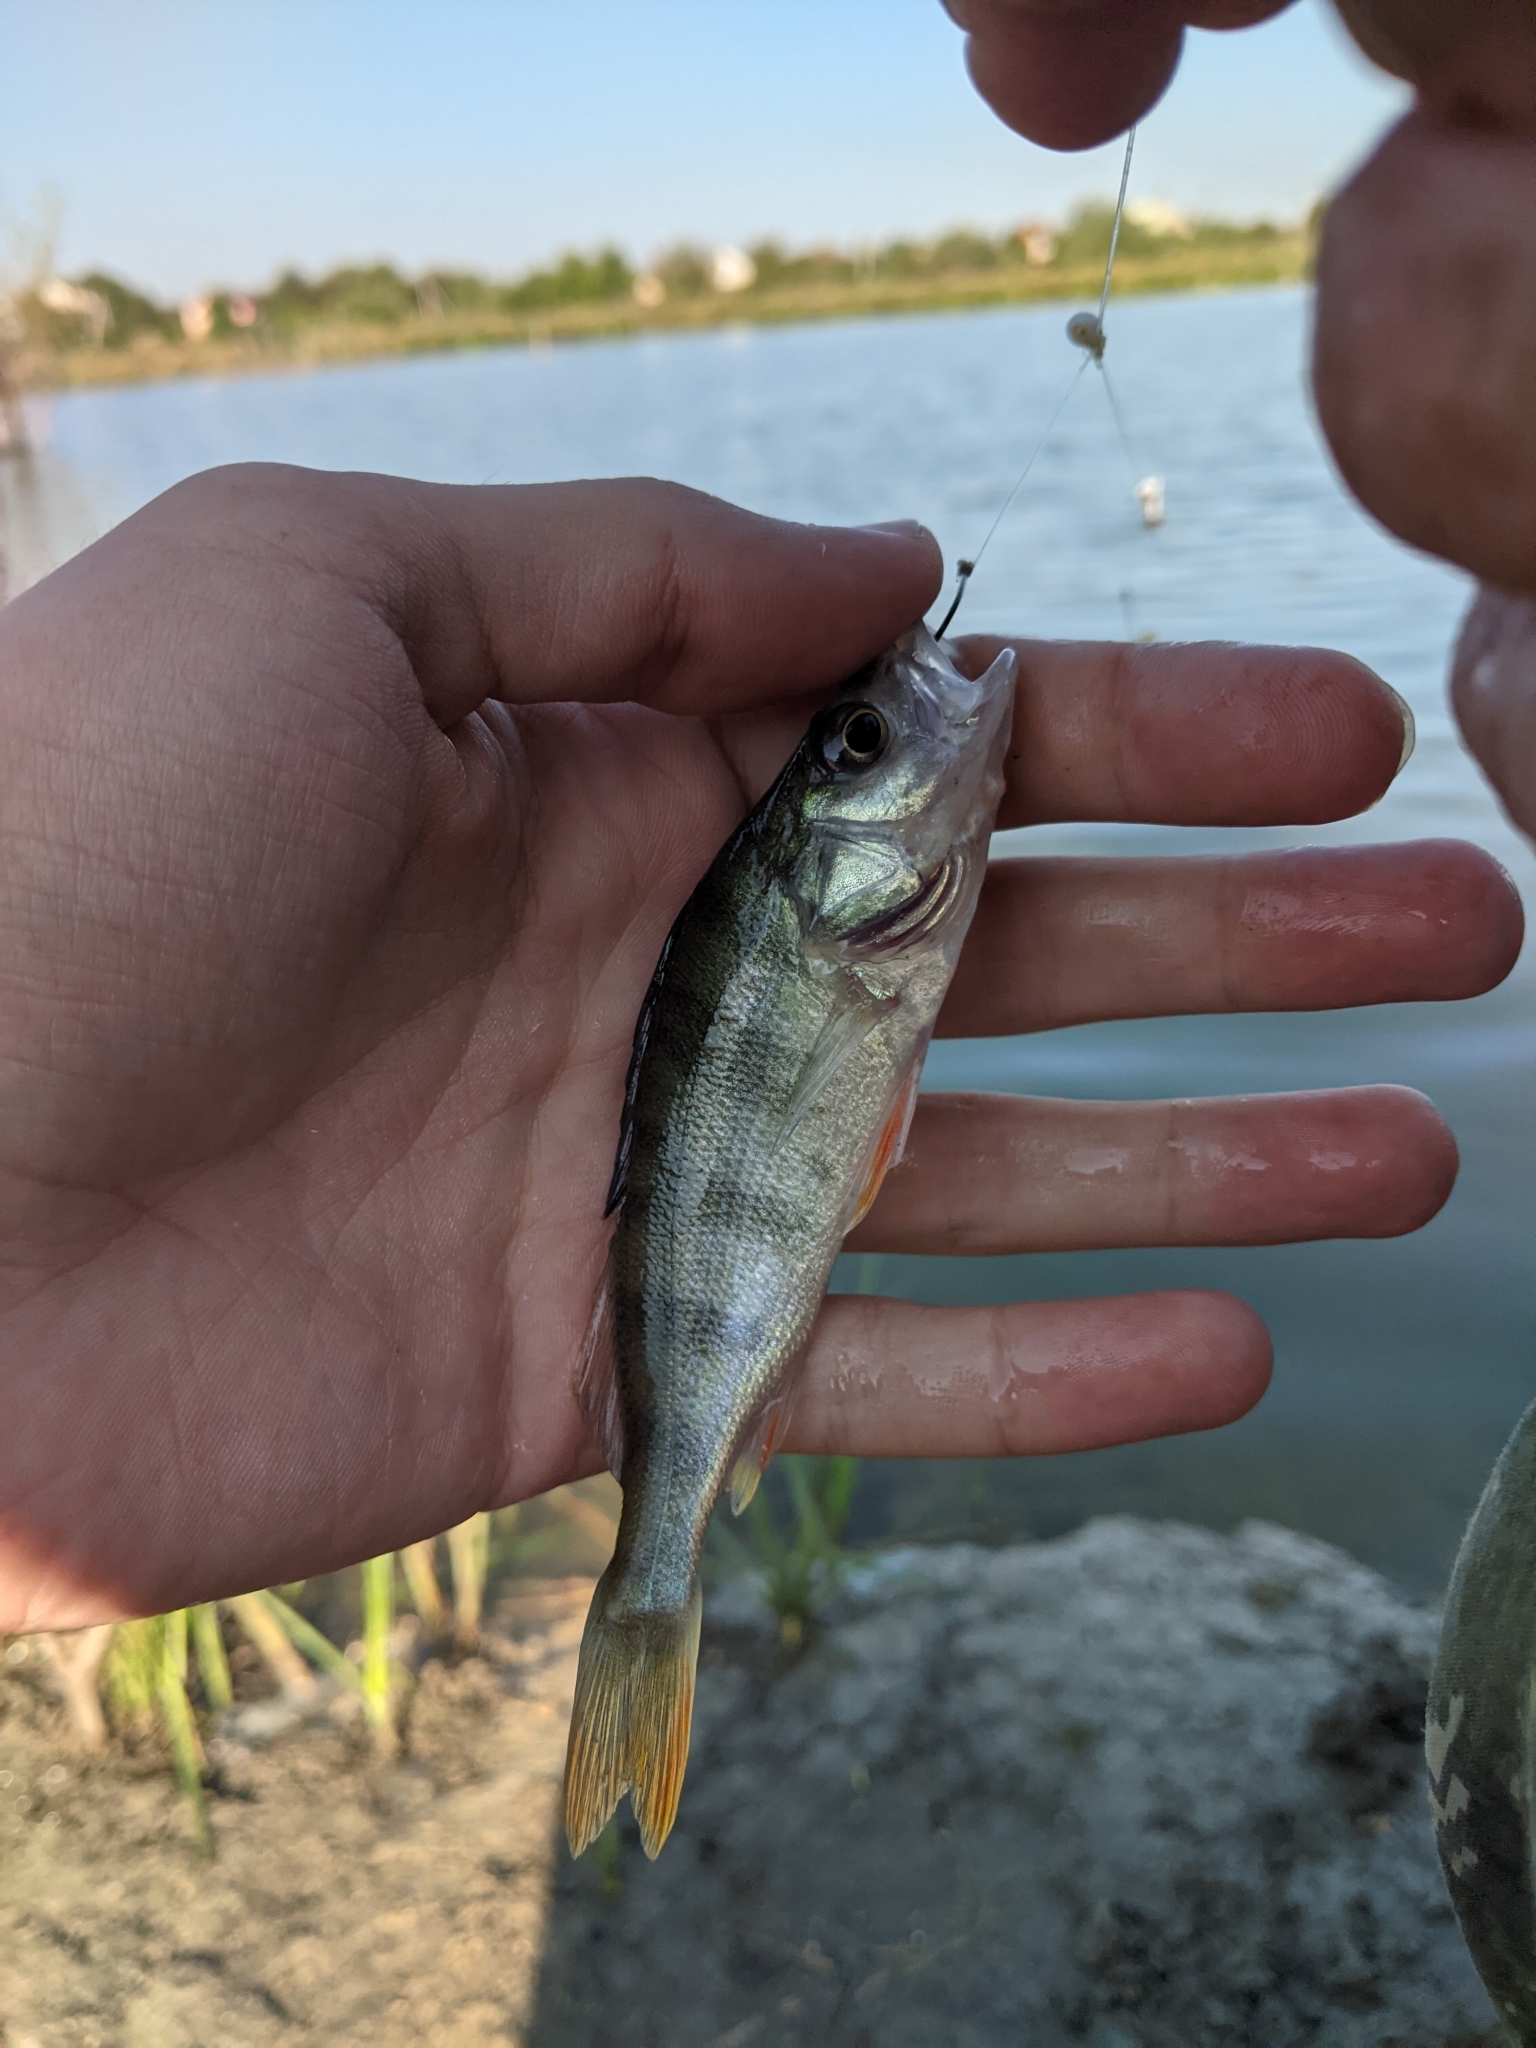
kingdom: Animalia
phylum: Chordata
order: Perciformes
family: Percidae
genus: Perca
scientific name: Perca fluviatilis
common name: Perch
